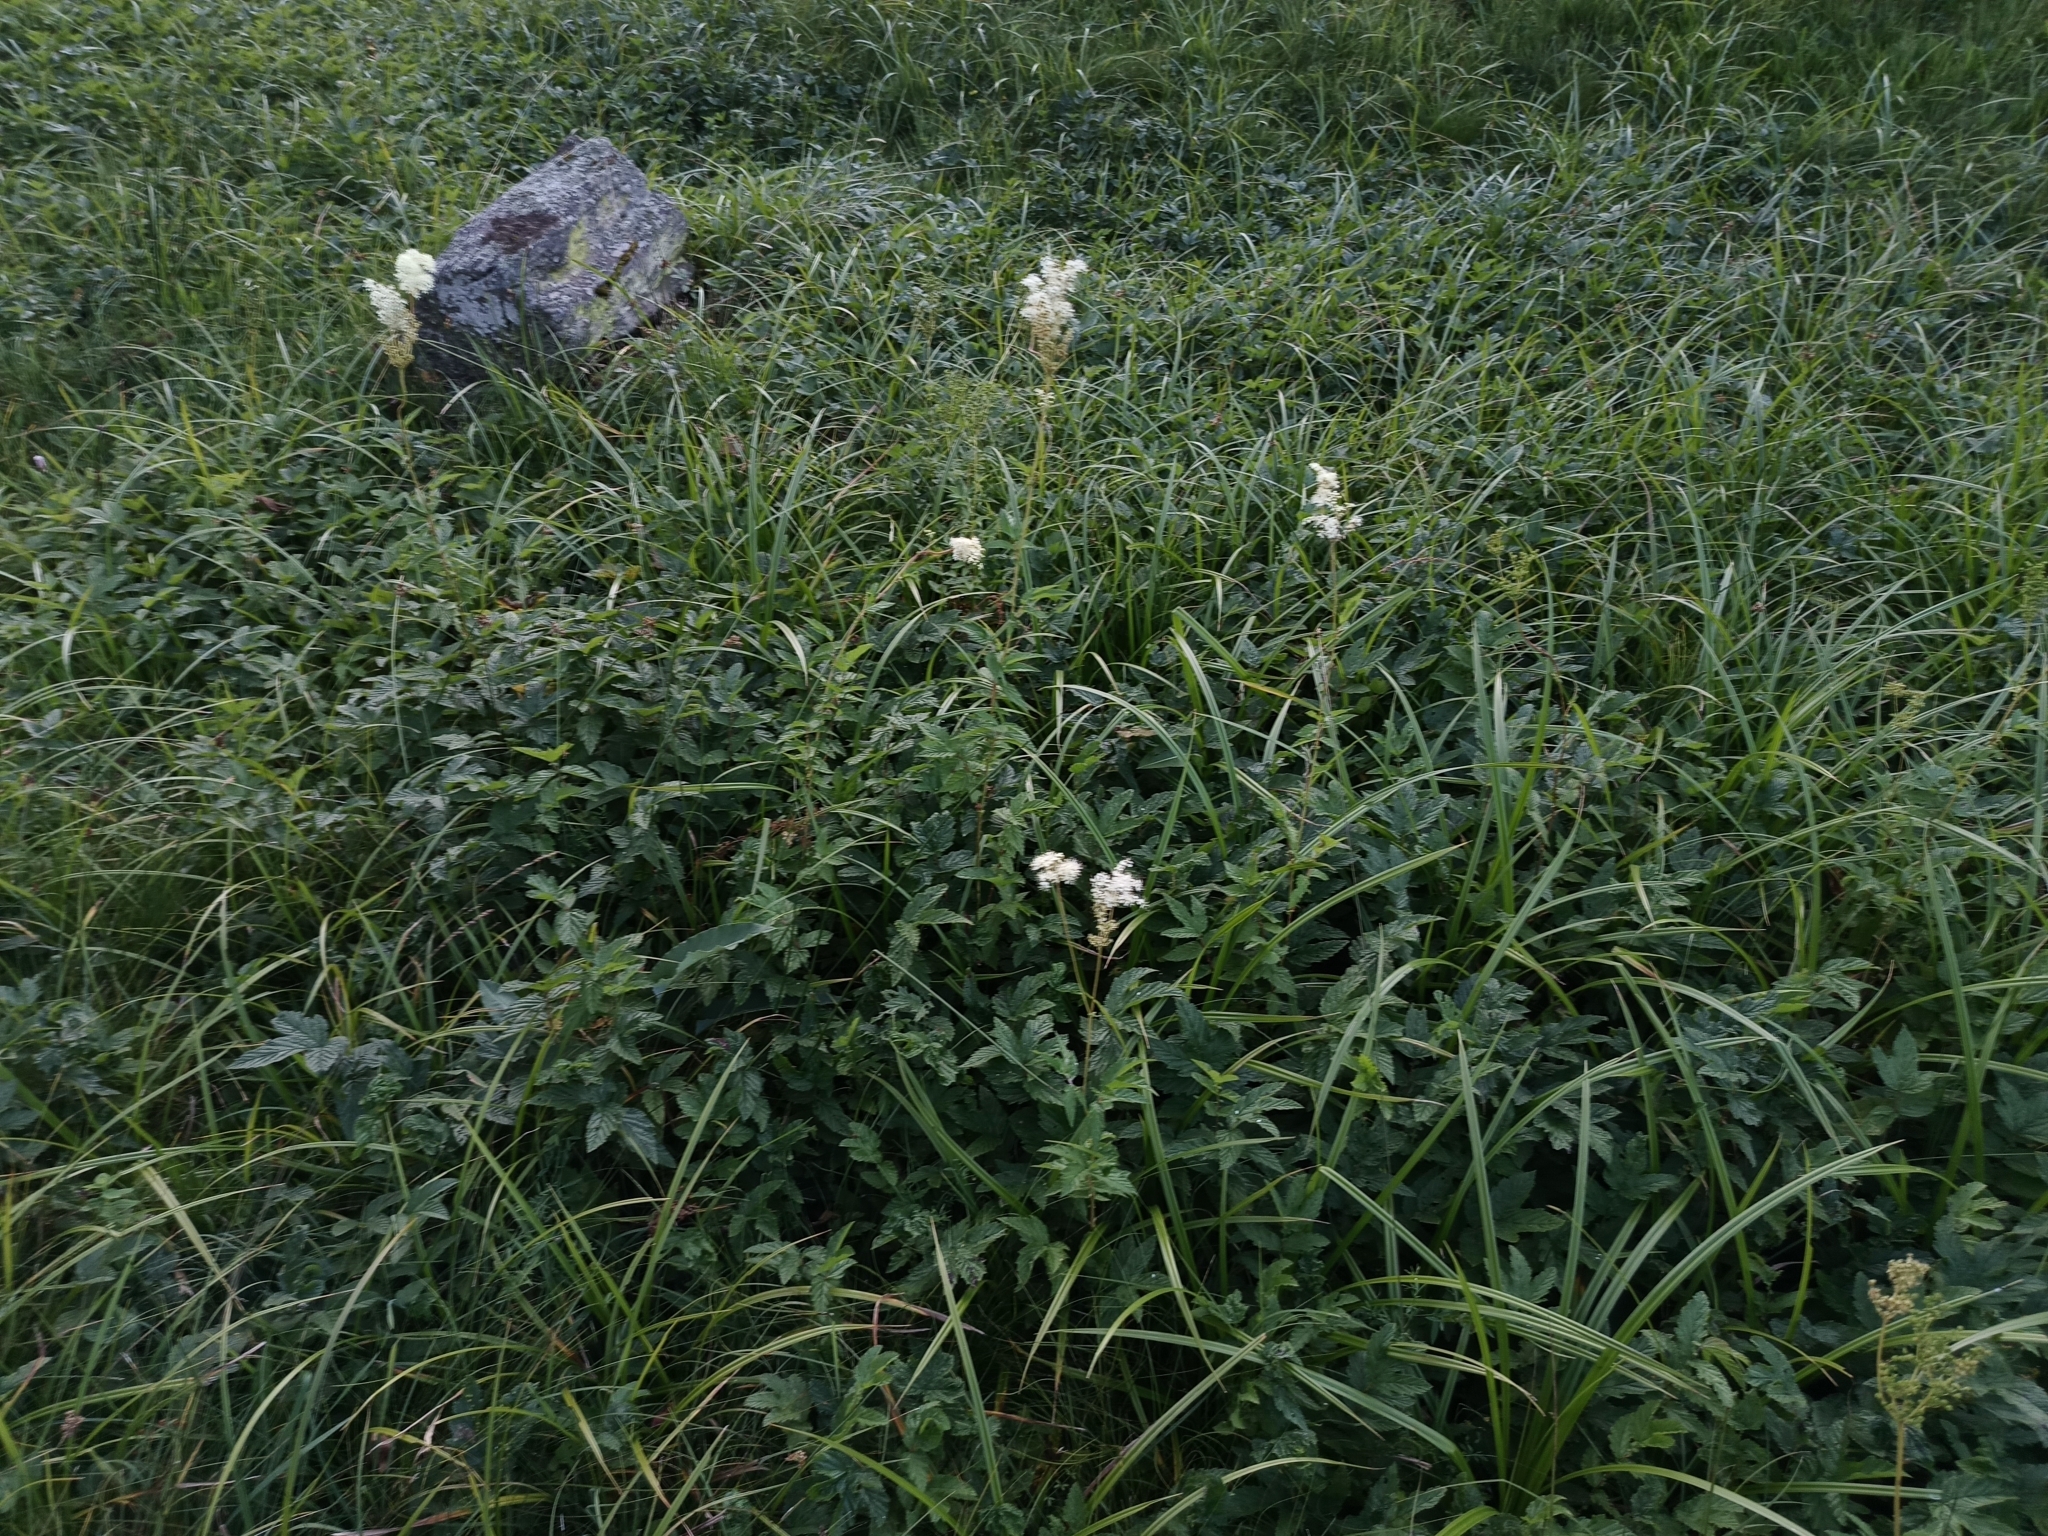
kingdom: Plantae
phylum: Tracheophyta
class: Magnoliopsida
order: Rosales
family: Rosaceae
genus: Filipendula
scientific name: Filipendula ulmaria
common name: Meadowsweet
